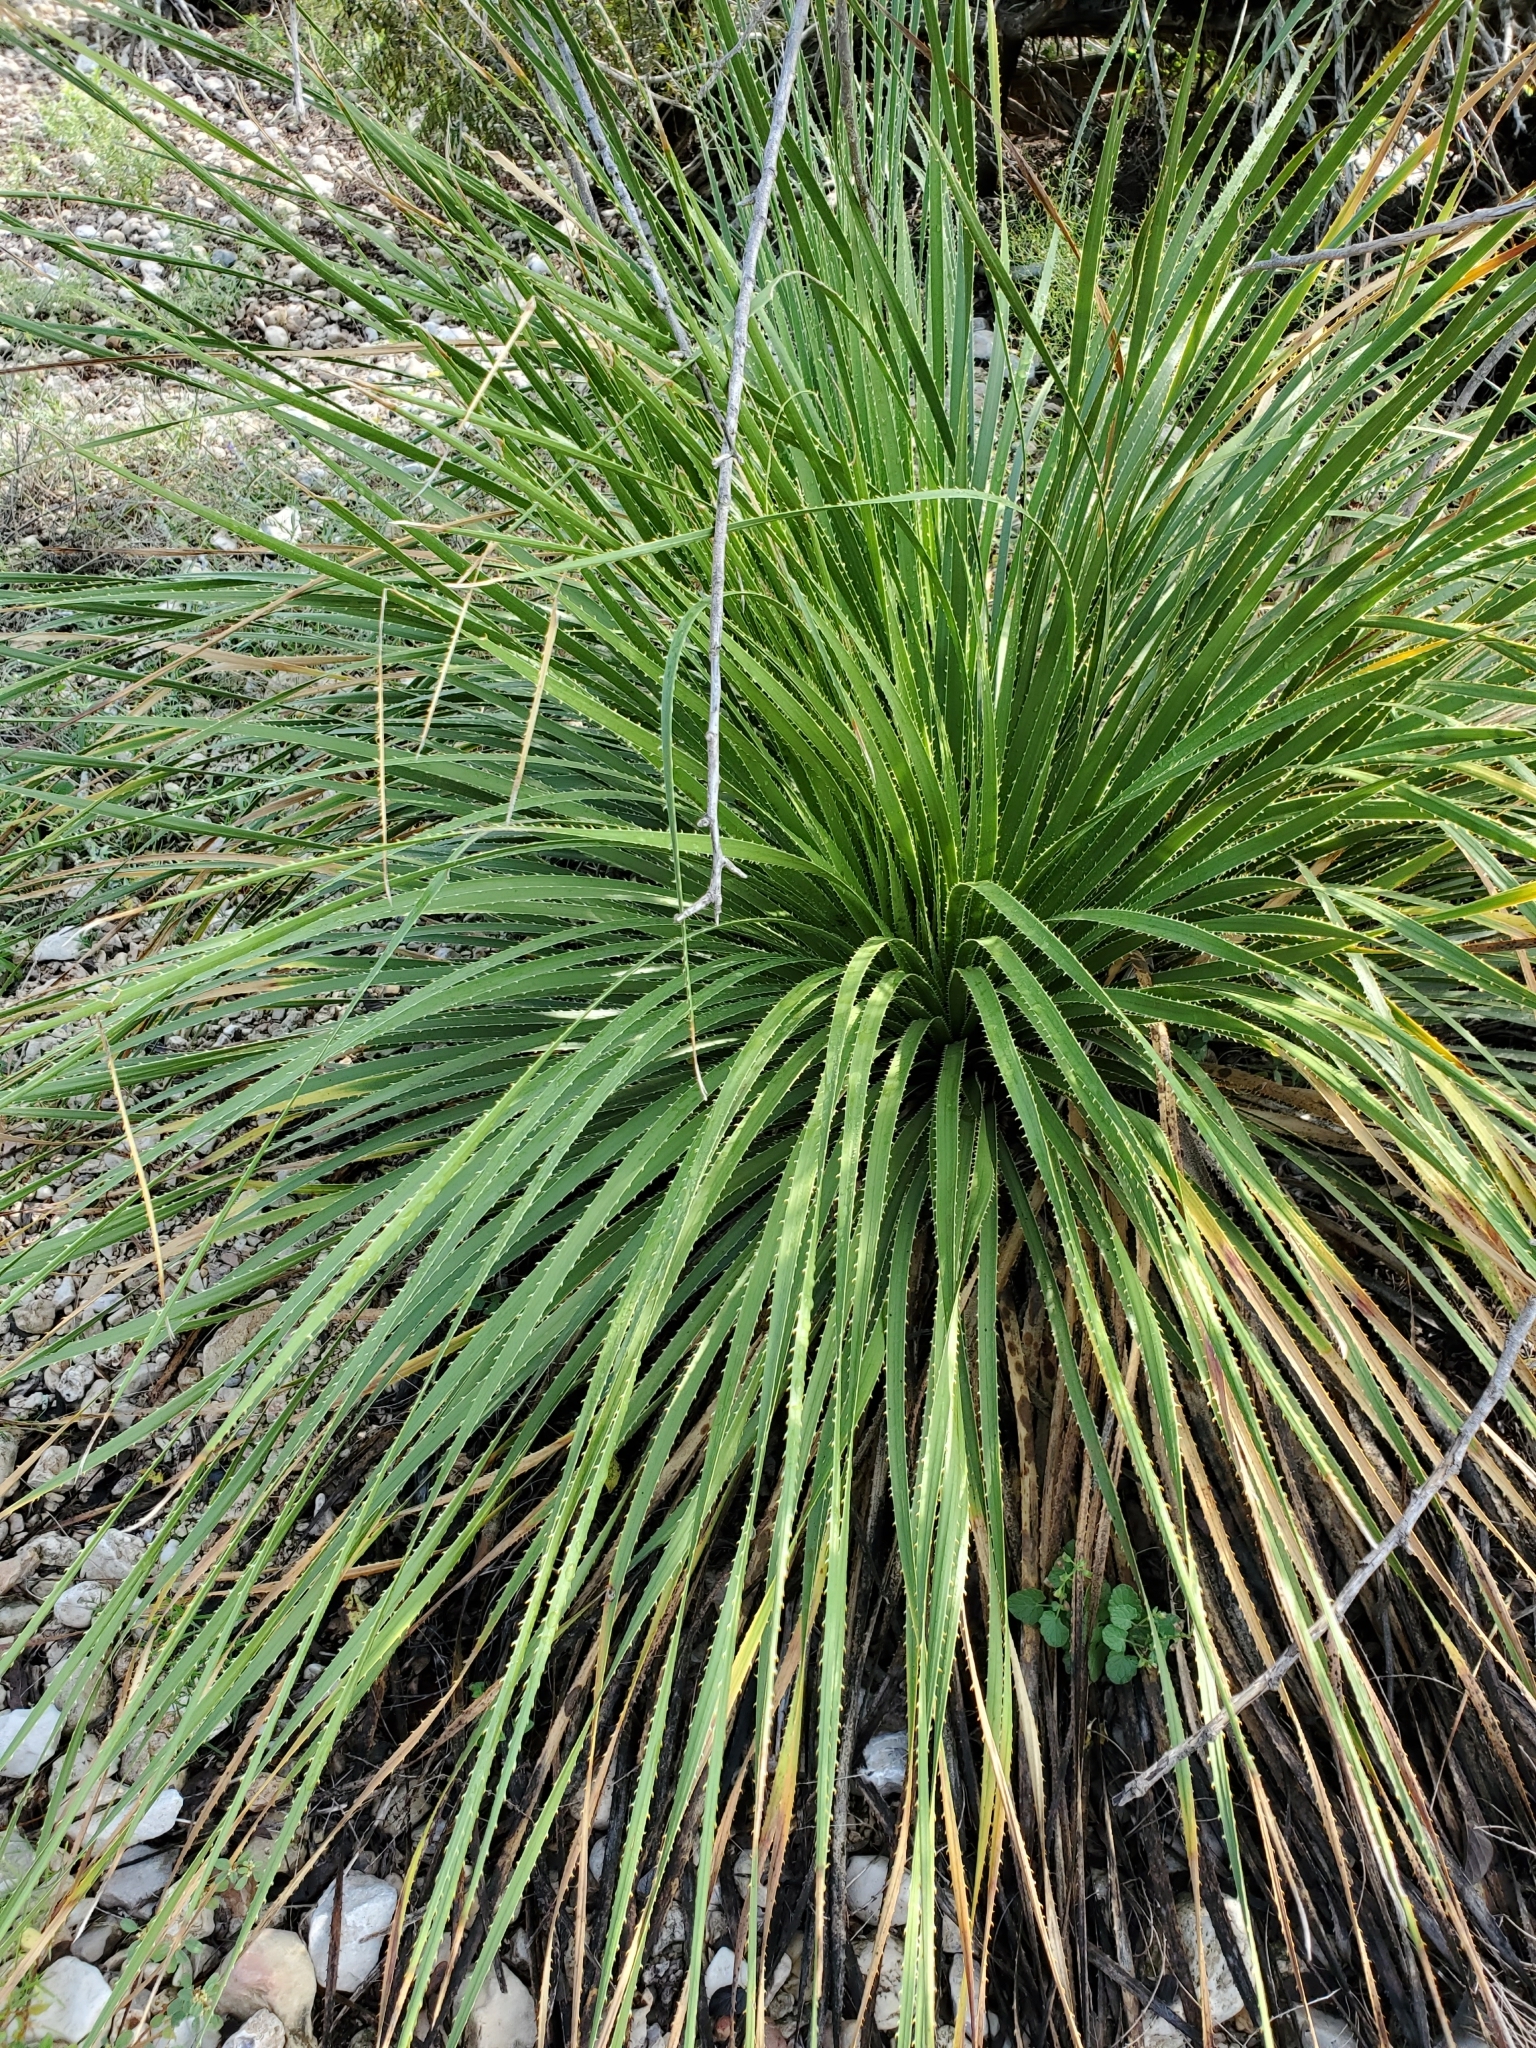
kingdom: Plantae
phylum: Tracheophyta
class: Liliopsida
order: Asparagales
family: Asparagaceae
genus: Dasylirion
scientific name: Dasylirion texanum
